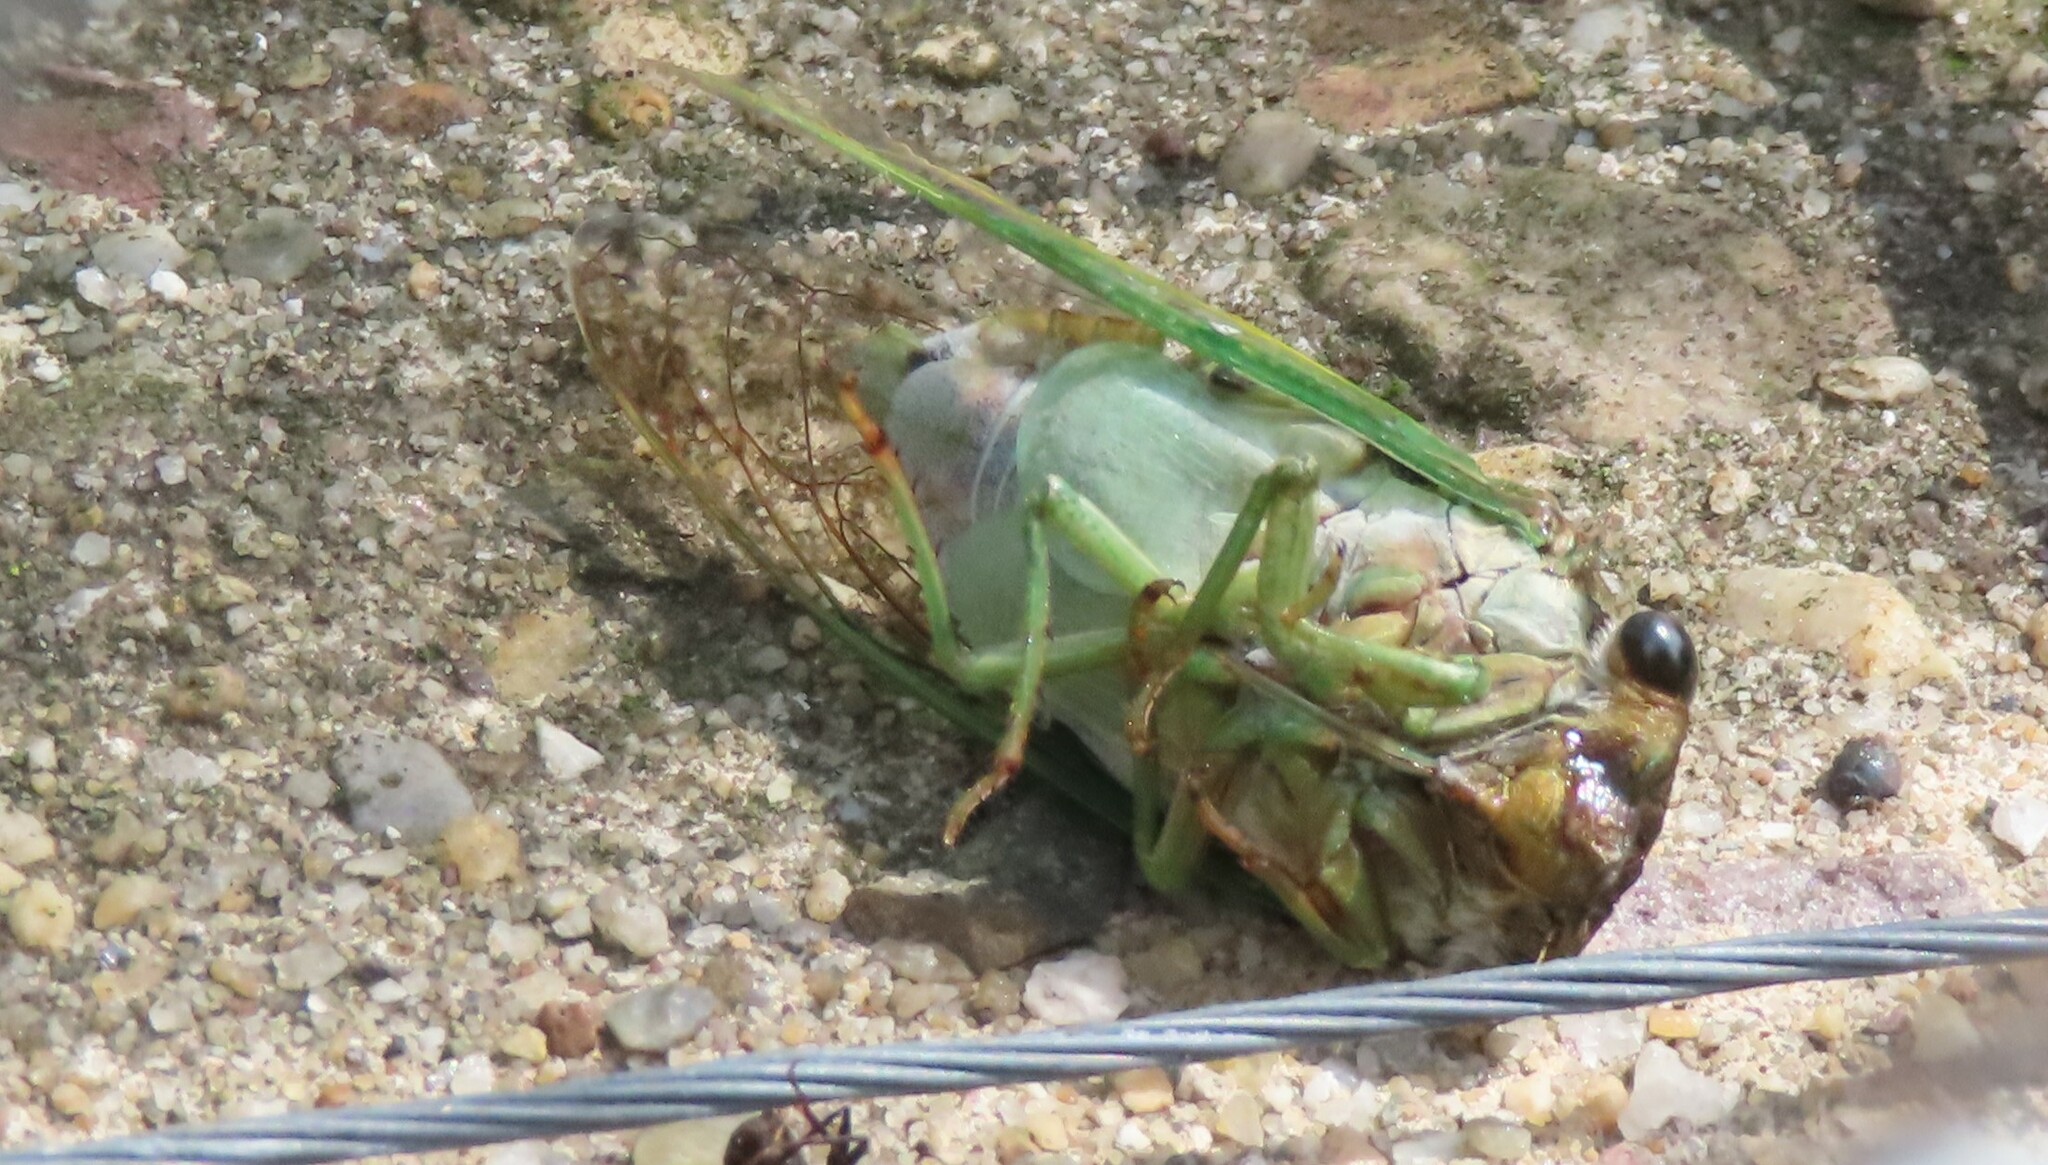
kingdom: Animalia
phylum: Arthropoda
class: Insecta
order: Hemiptera
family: Cicadidae
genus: Neotibicen
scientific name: Neotibicen tibicen
